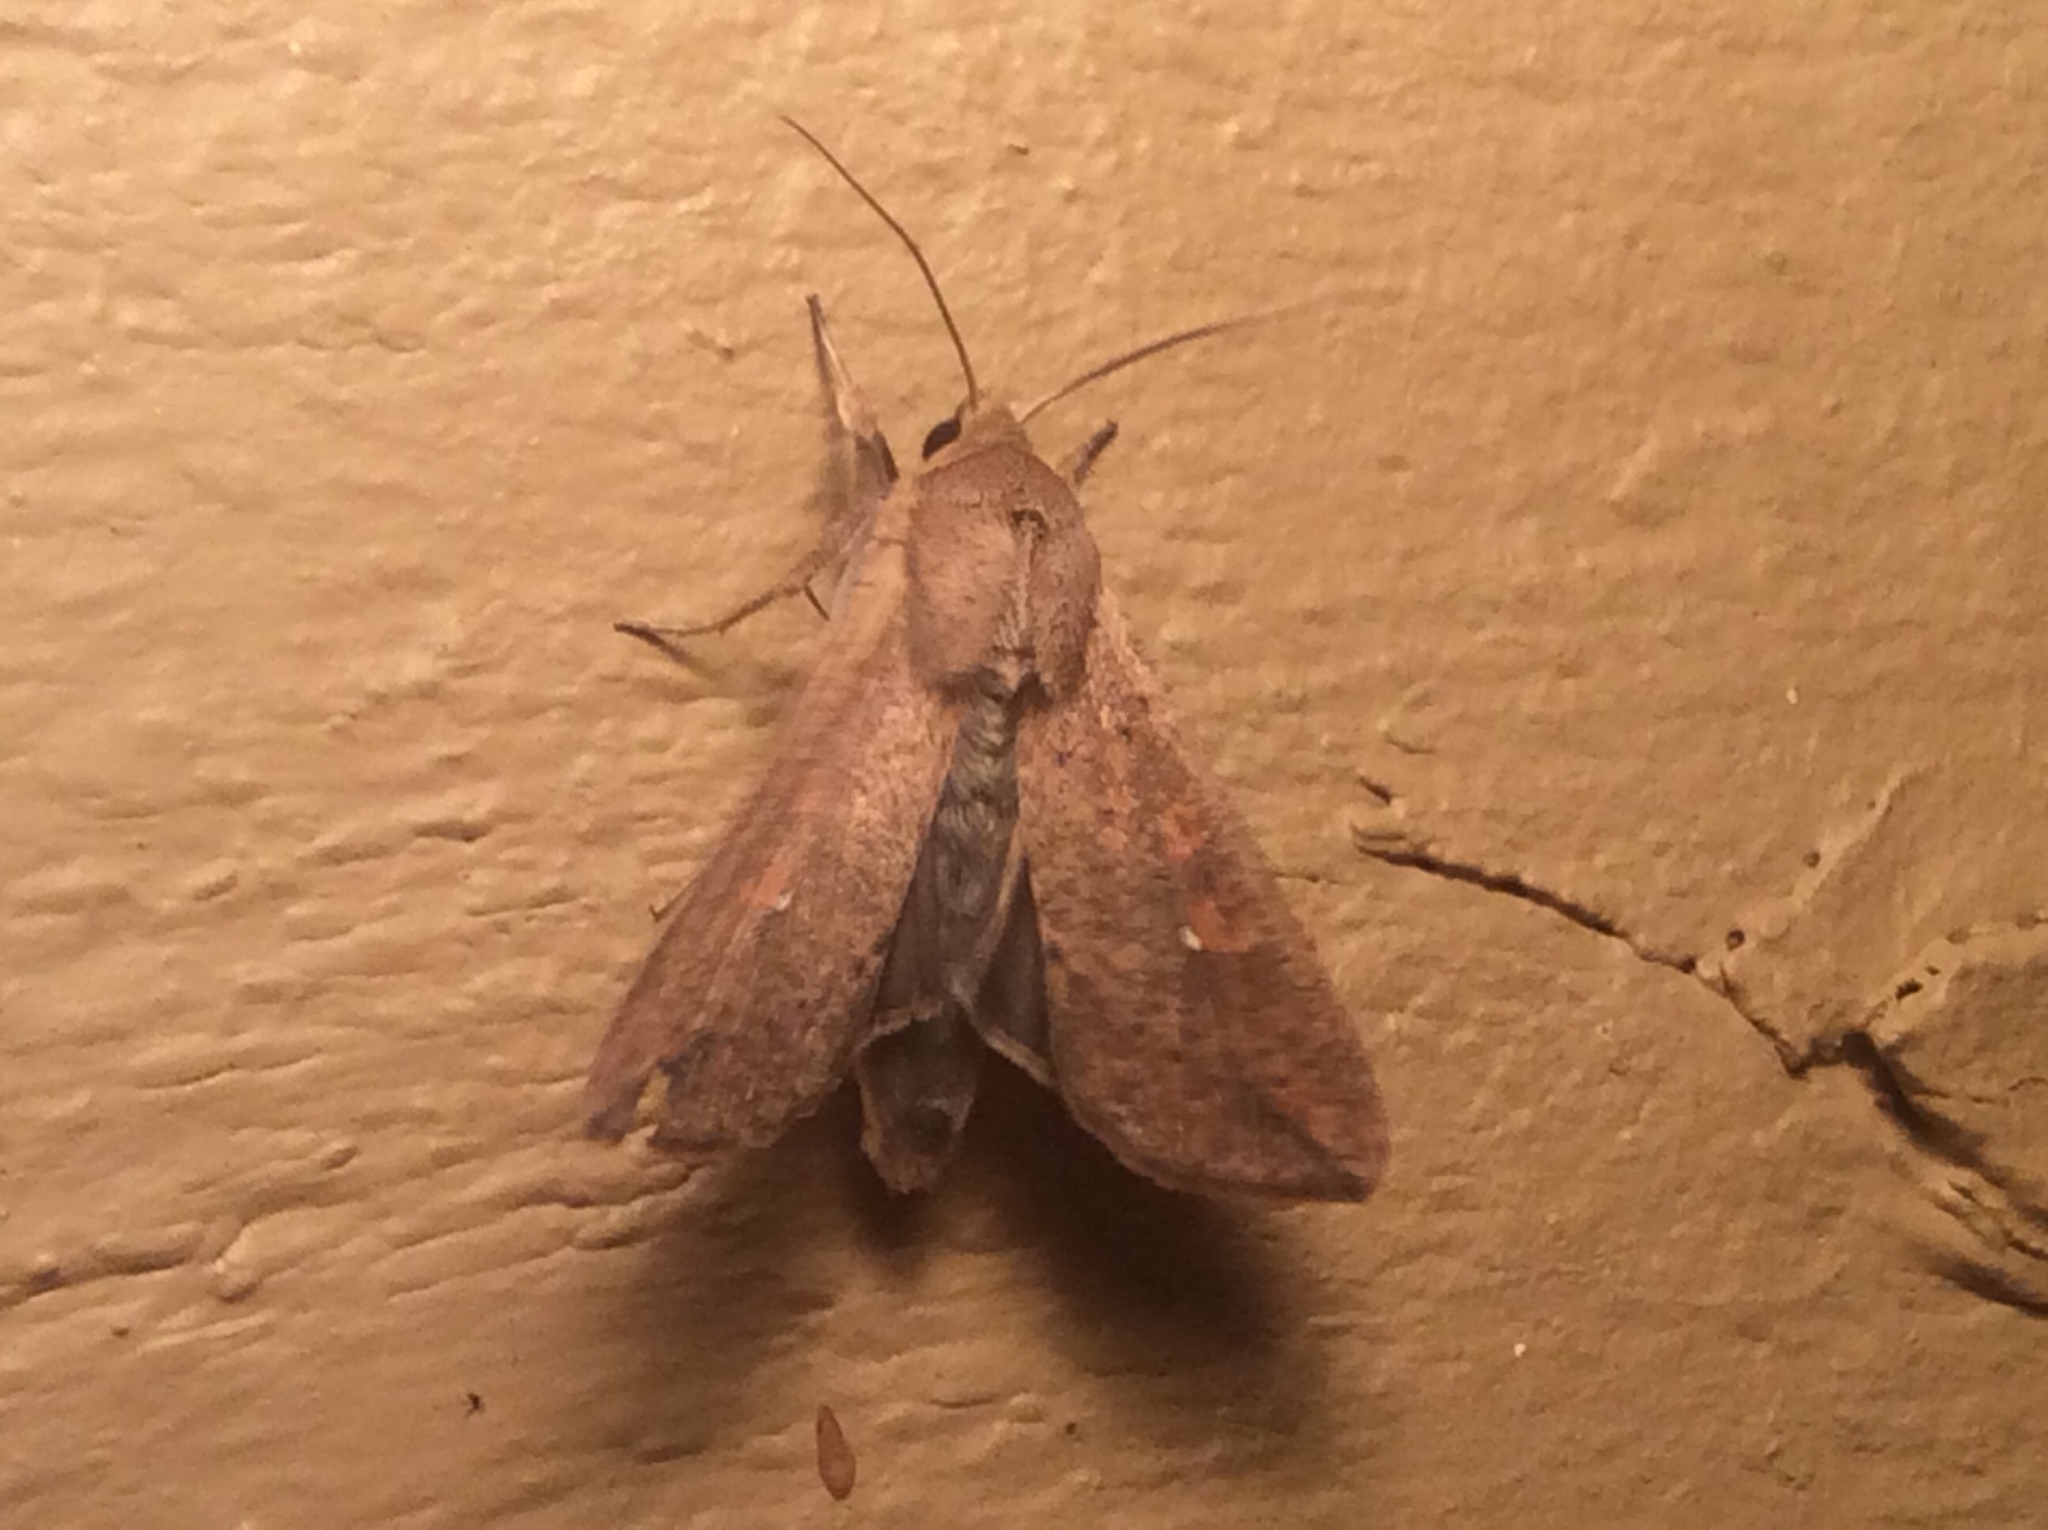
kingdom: Animalia
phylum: Arthropoda
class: Insecta
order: Lepidoptera
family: Noctuidae
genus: Mythimna
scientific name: Mythimna unipuncta
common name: White-speck
